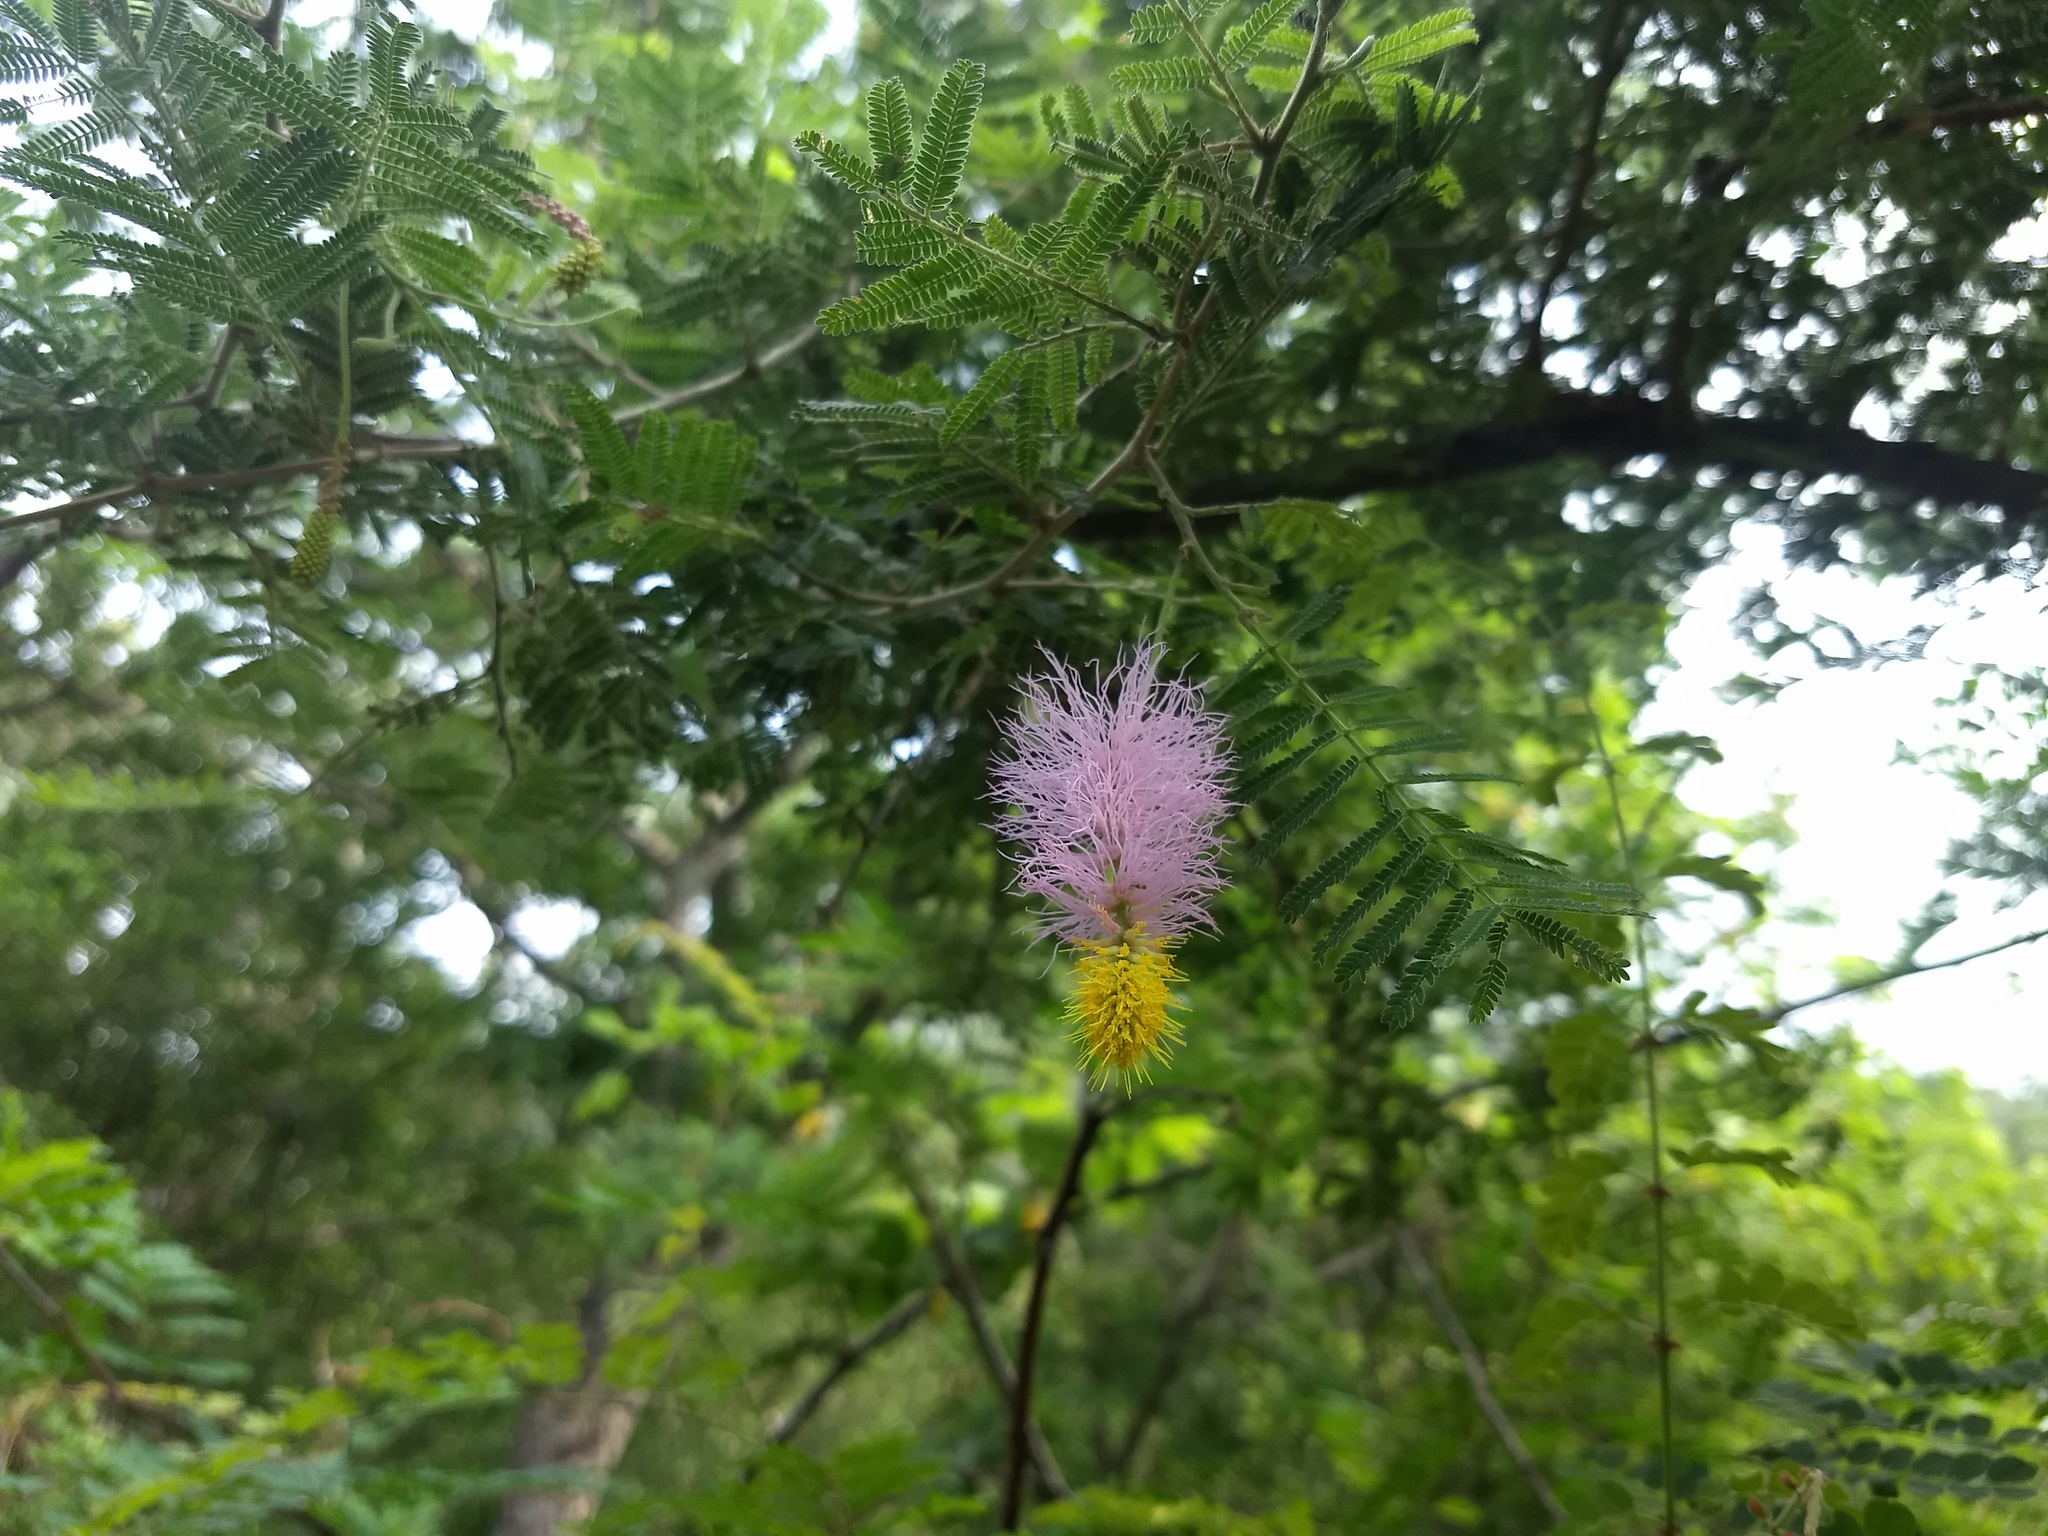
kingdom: Plantae
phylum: Tracheophyta
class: Magnoliopsida
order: Fabales
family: Fabaceae
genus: Dichrostachys
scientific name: Dichrostachys cinerea
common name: Sicklebush
